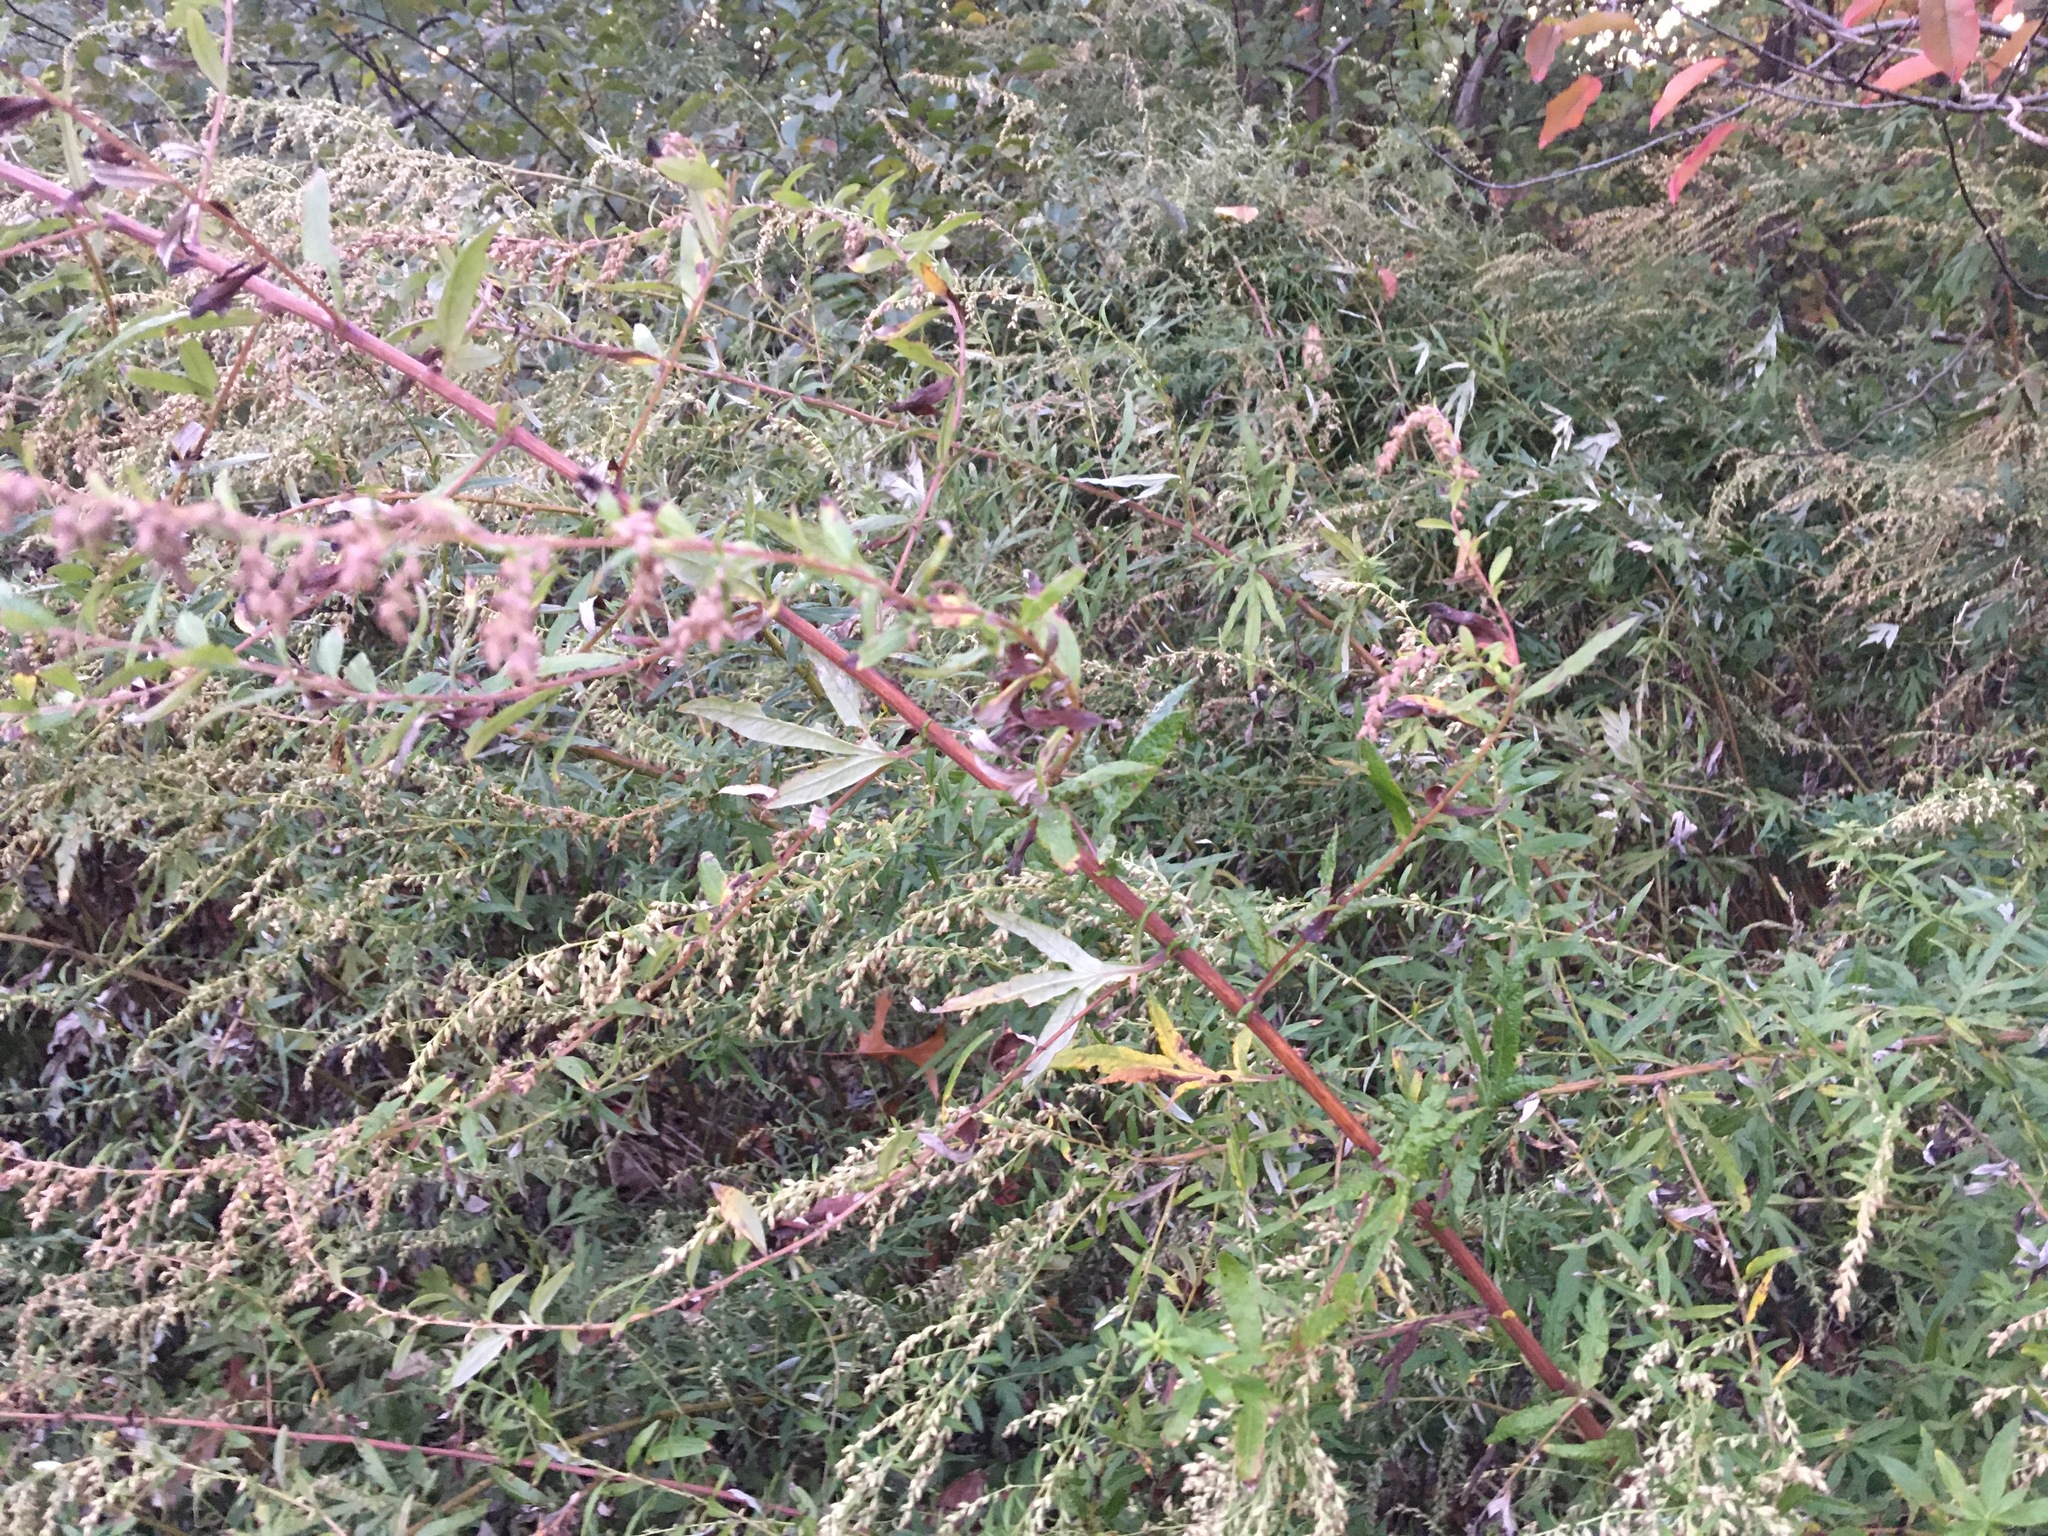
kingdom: Plantae
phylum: Tracheophyta
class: Magnoliopsida
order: Asterales
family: Asteraceae
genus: Artemisia
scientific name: Artemisia vulgaris
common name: Mugwort
